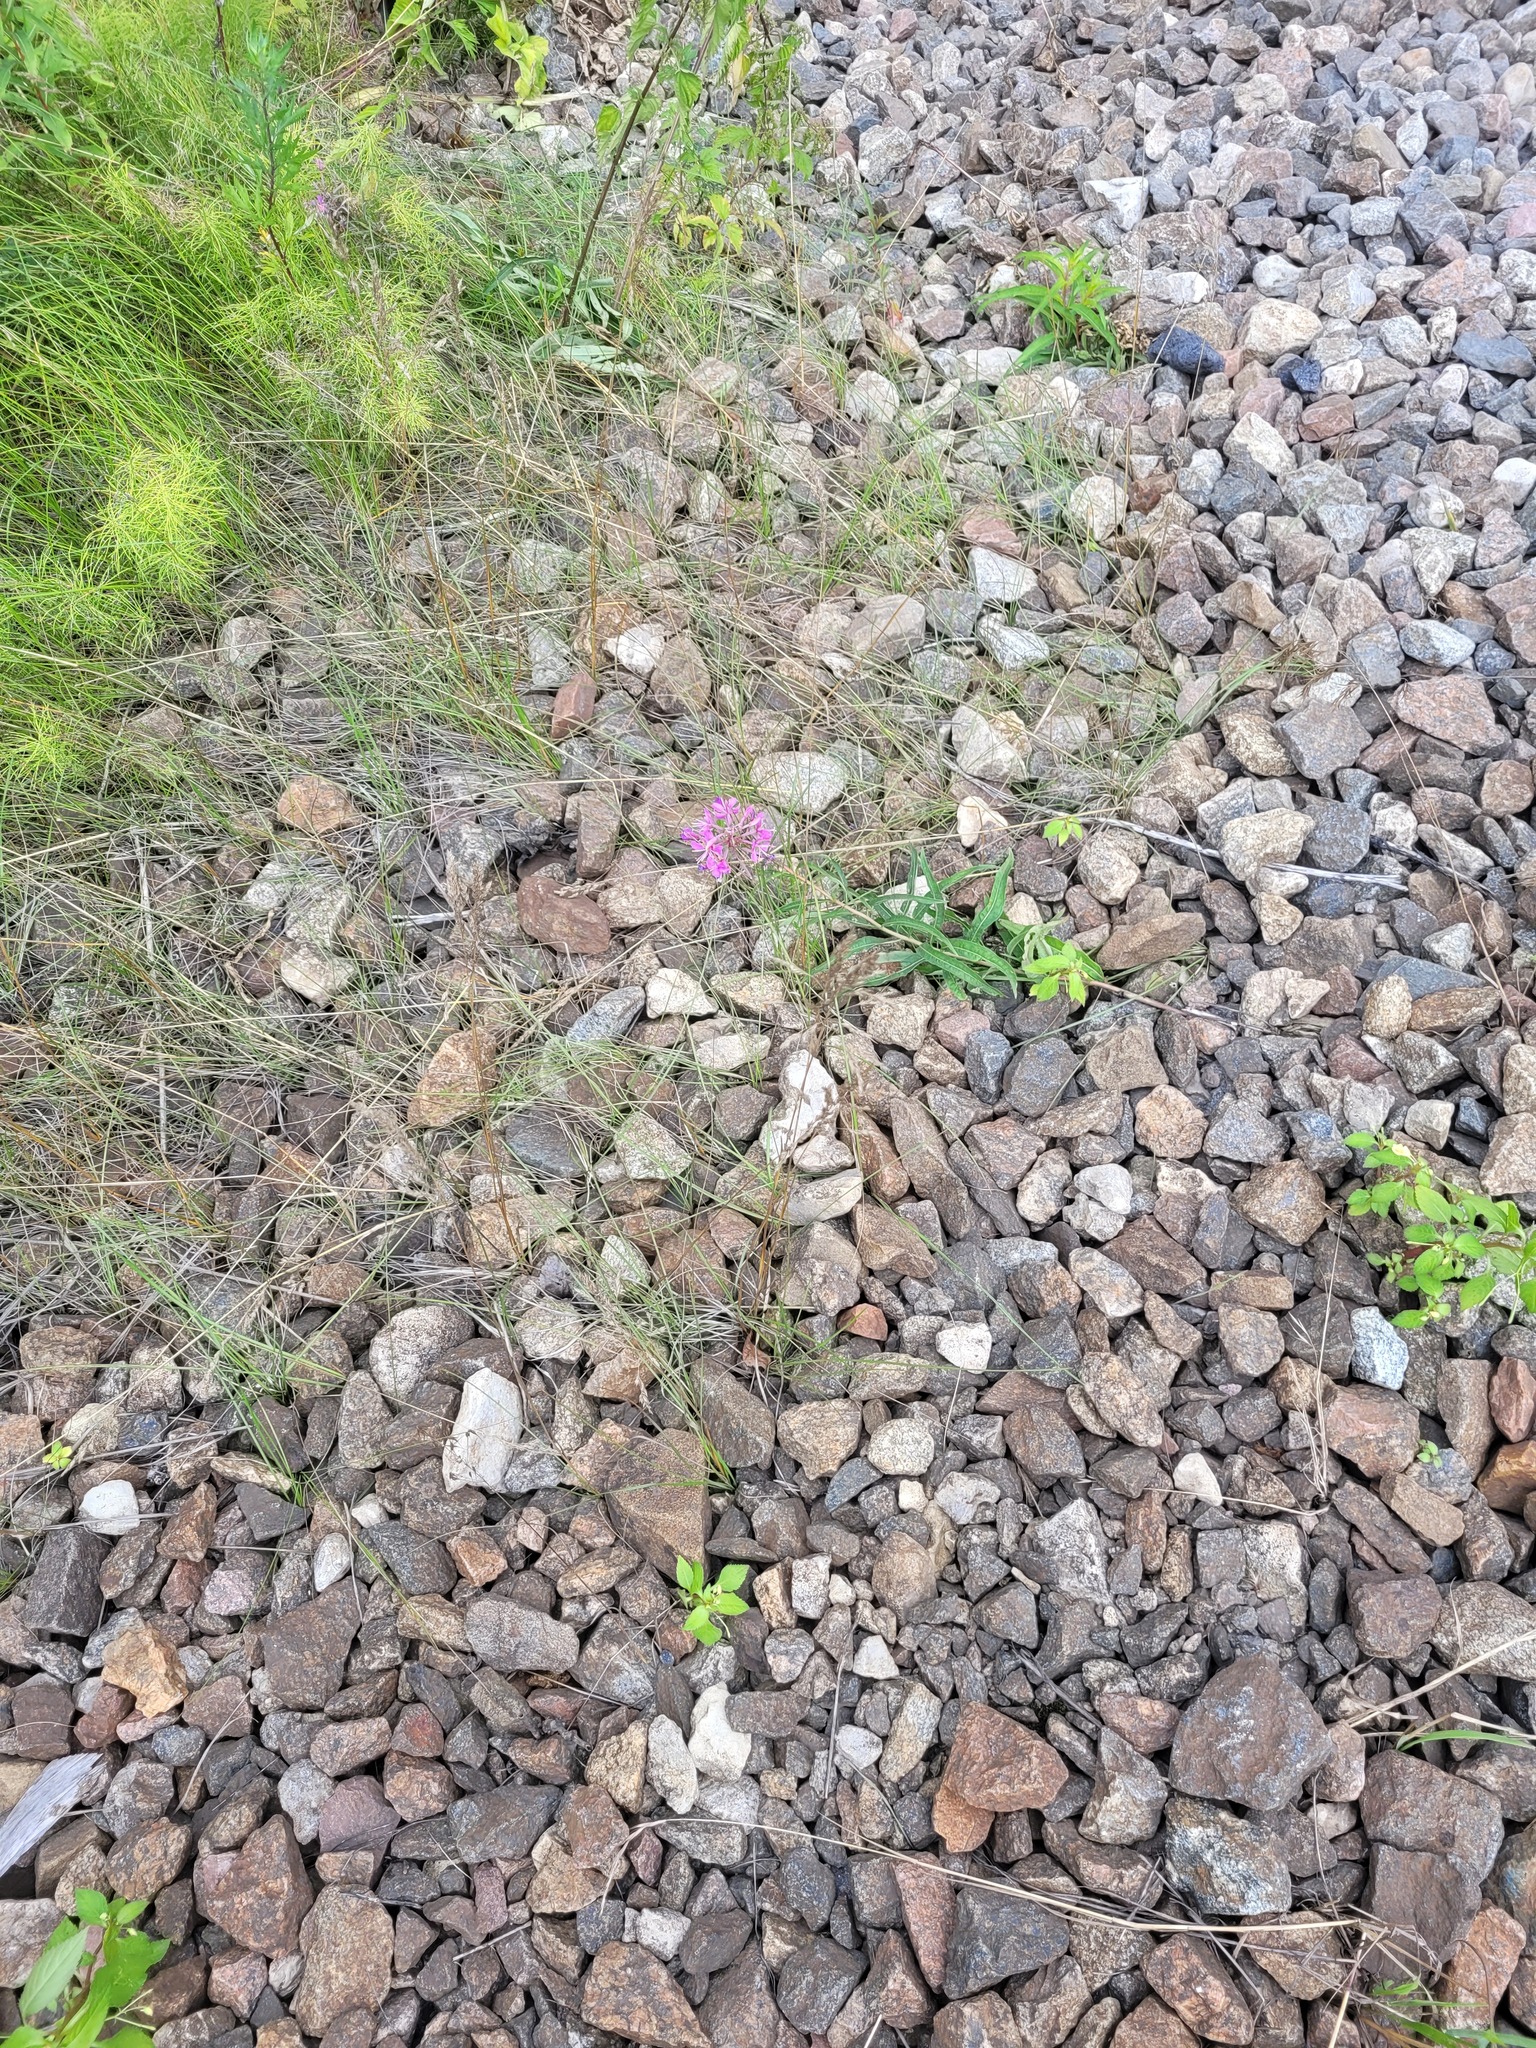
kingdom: Plantae
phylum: Tracheophyta
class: Magnoliopsida
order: Myrtales
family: Onagraceae
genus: Chamaenerion
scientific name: Chamaenerion angustifolium
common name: Fireweed
